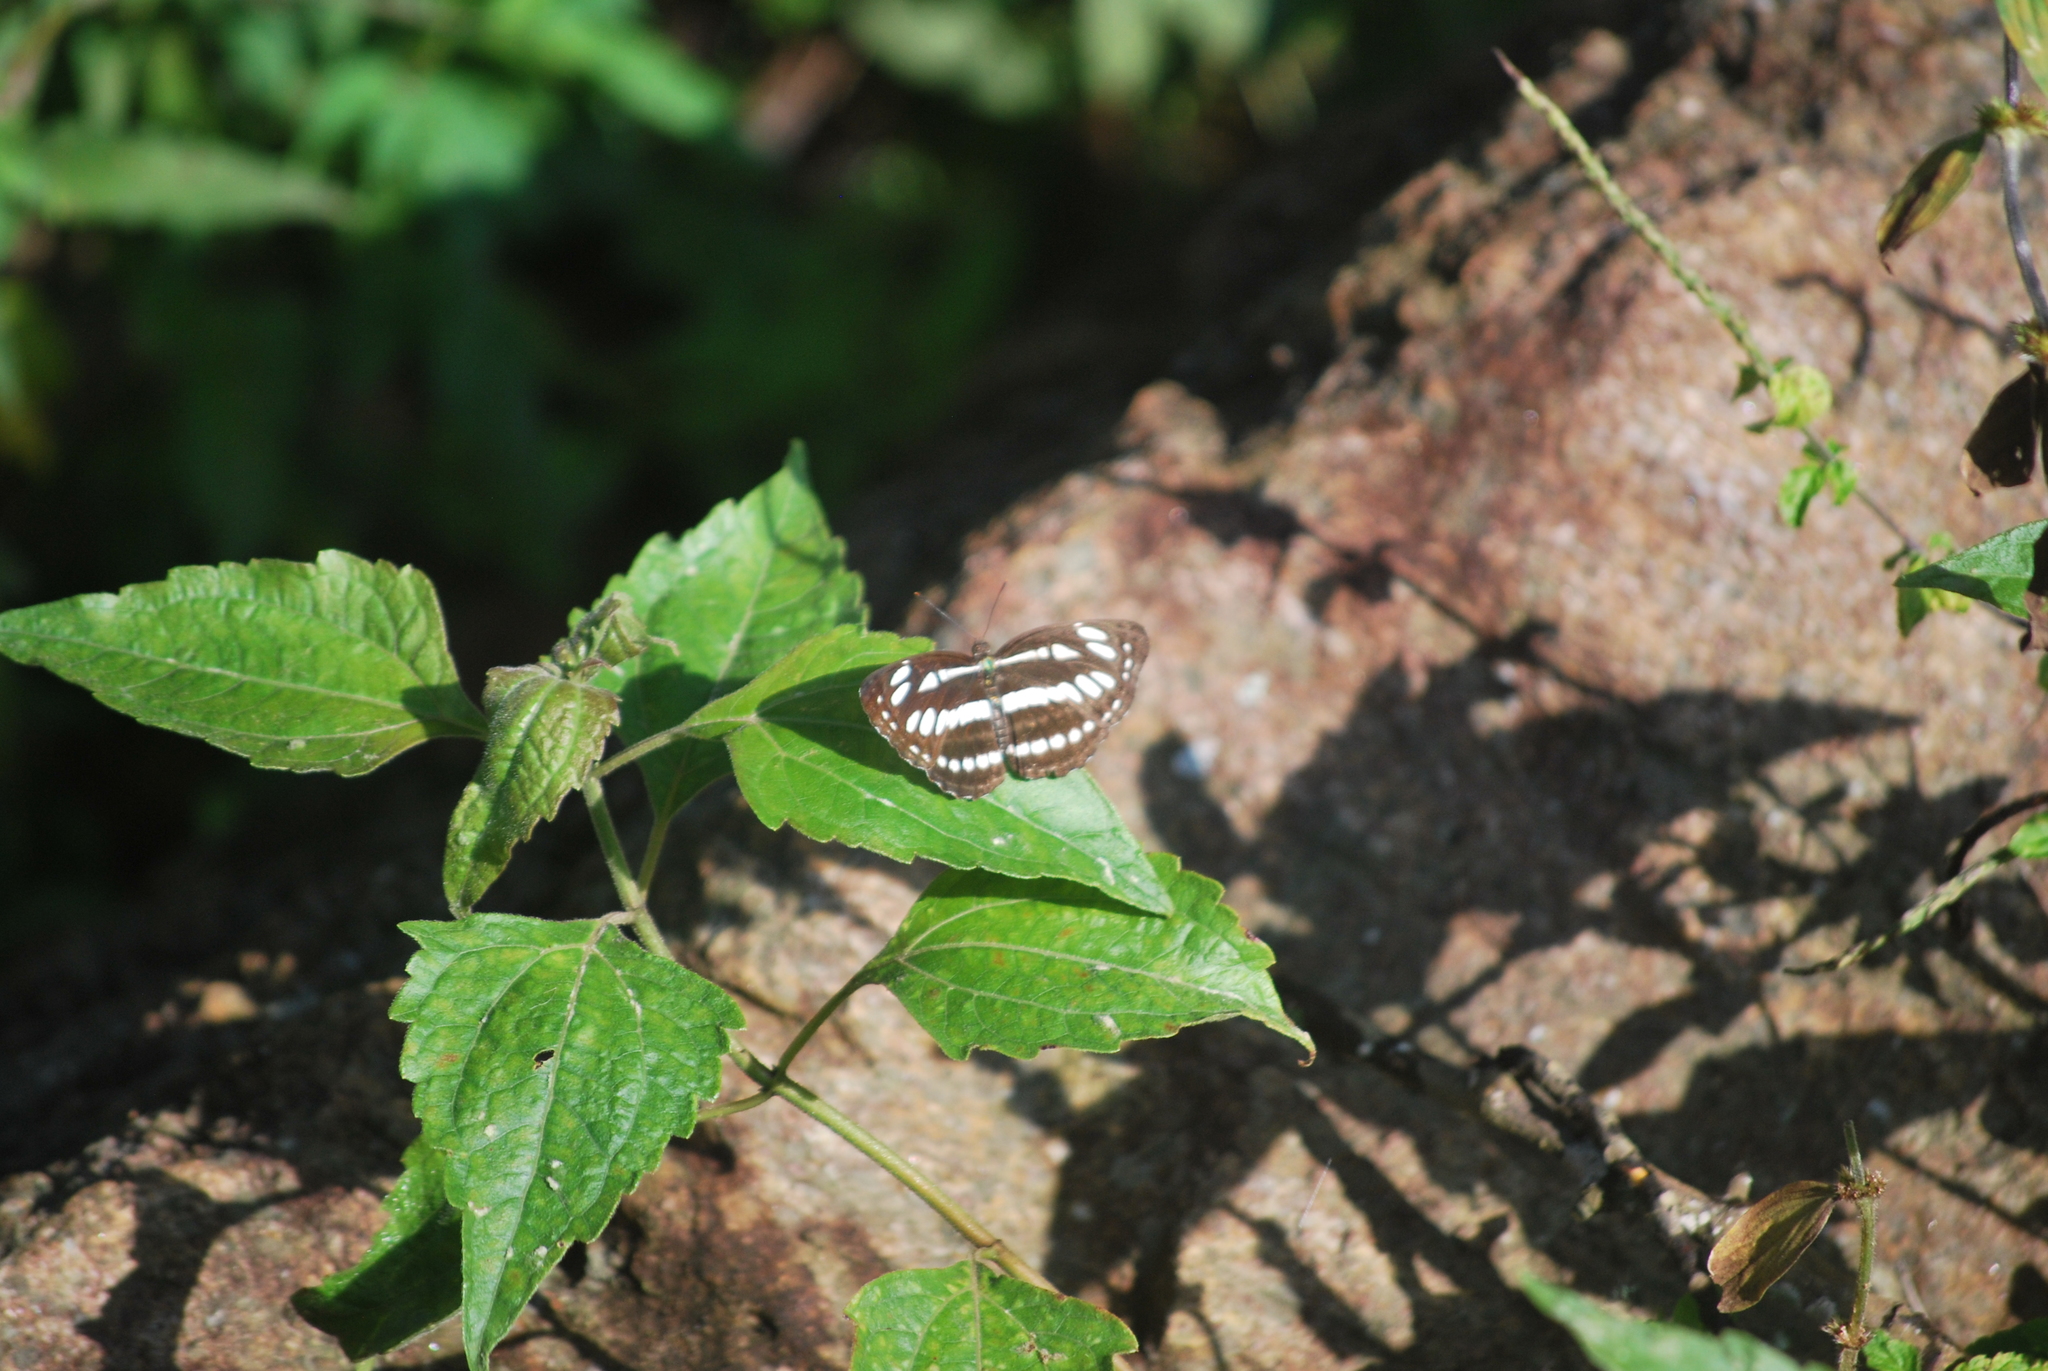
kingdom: Animalia
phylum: Arthropoda
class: Insecta
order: Lepidoptera
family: Nymphalidae
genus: Neptis
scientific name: Neptis hylas
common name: Common sailer
